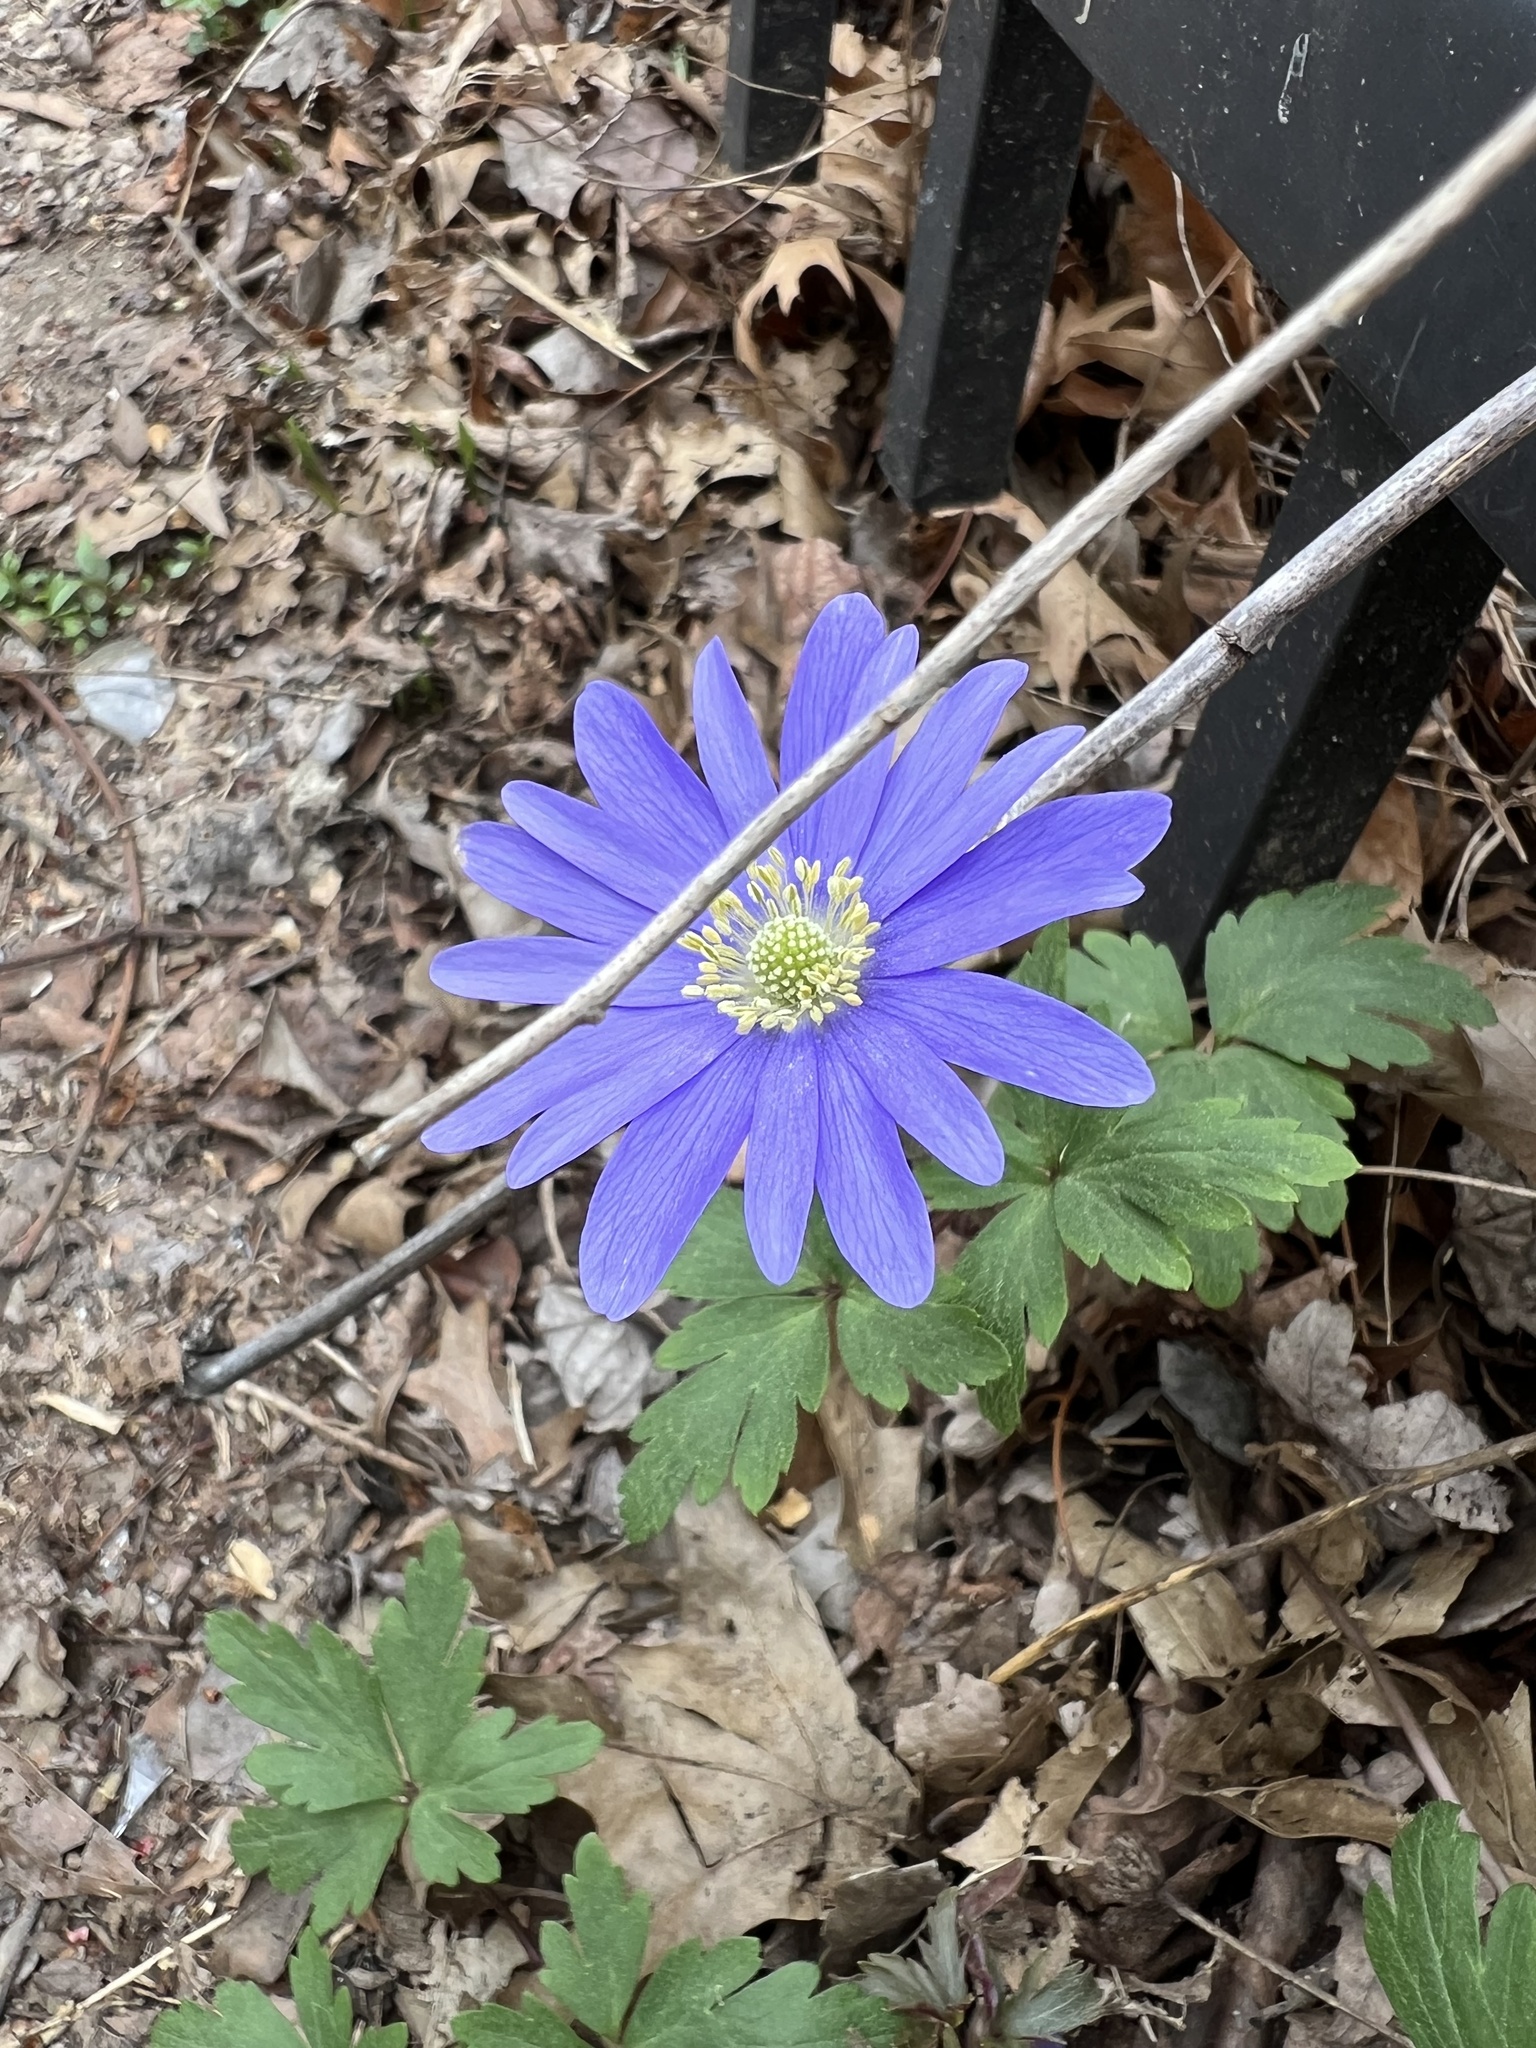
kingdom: Plantae
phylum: Tracheophyta
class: Magnoliopsida
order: Ranunculales
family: Ranunculaceae
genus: Anemone
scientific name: Anemone blanda
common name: Balkan anemone
